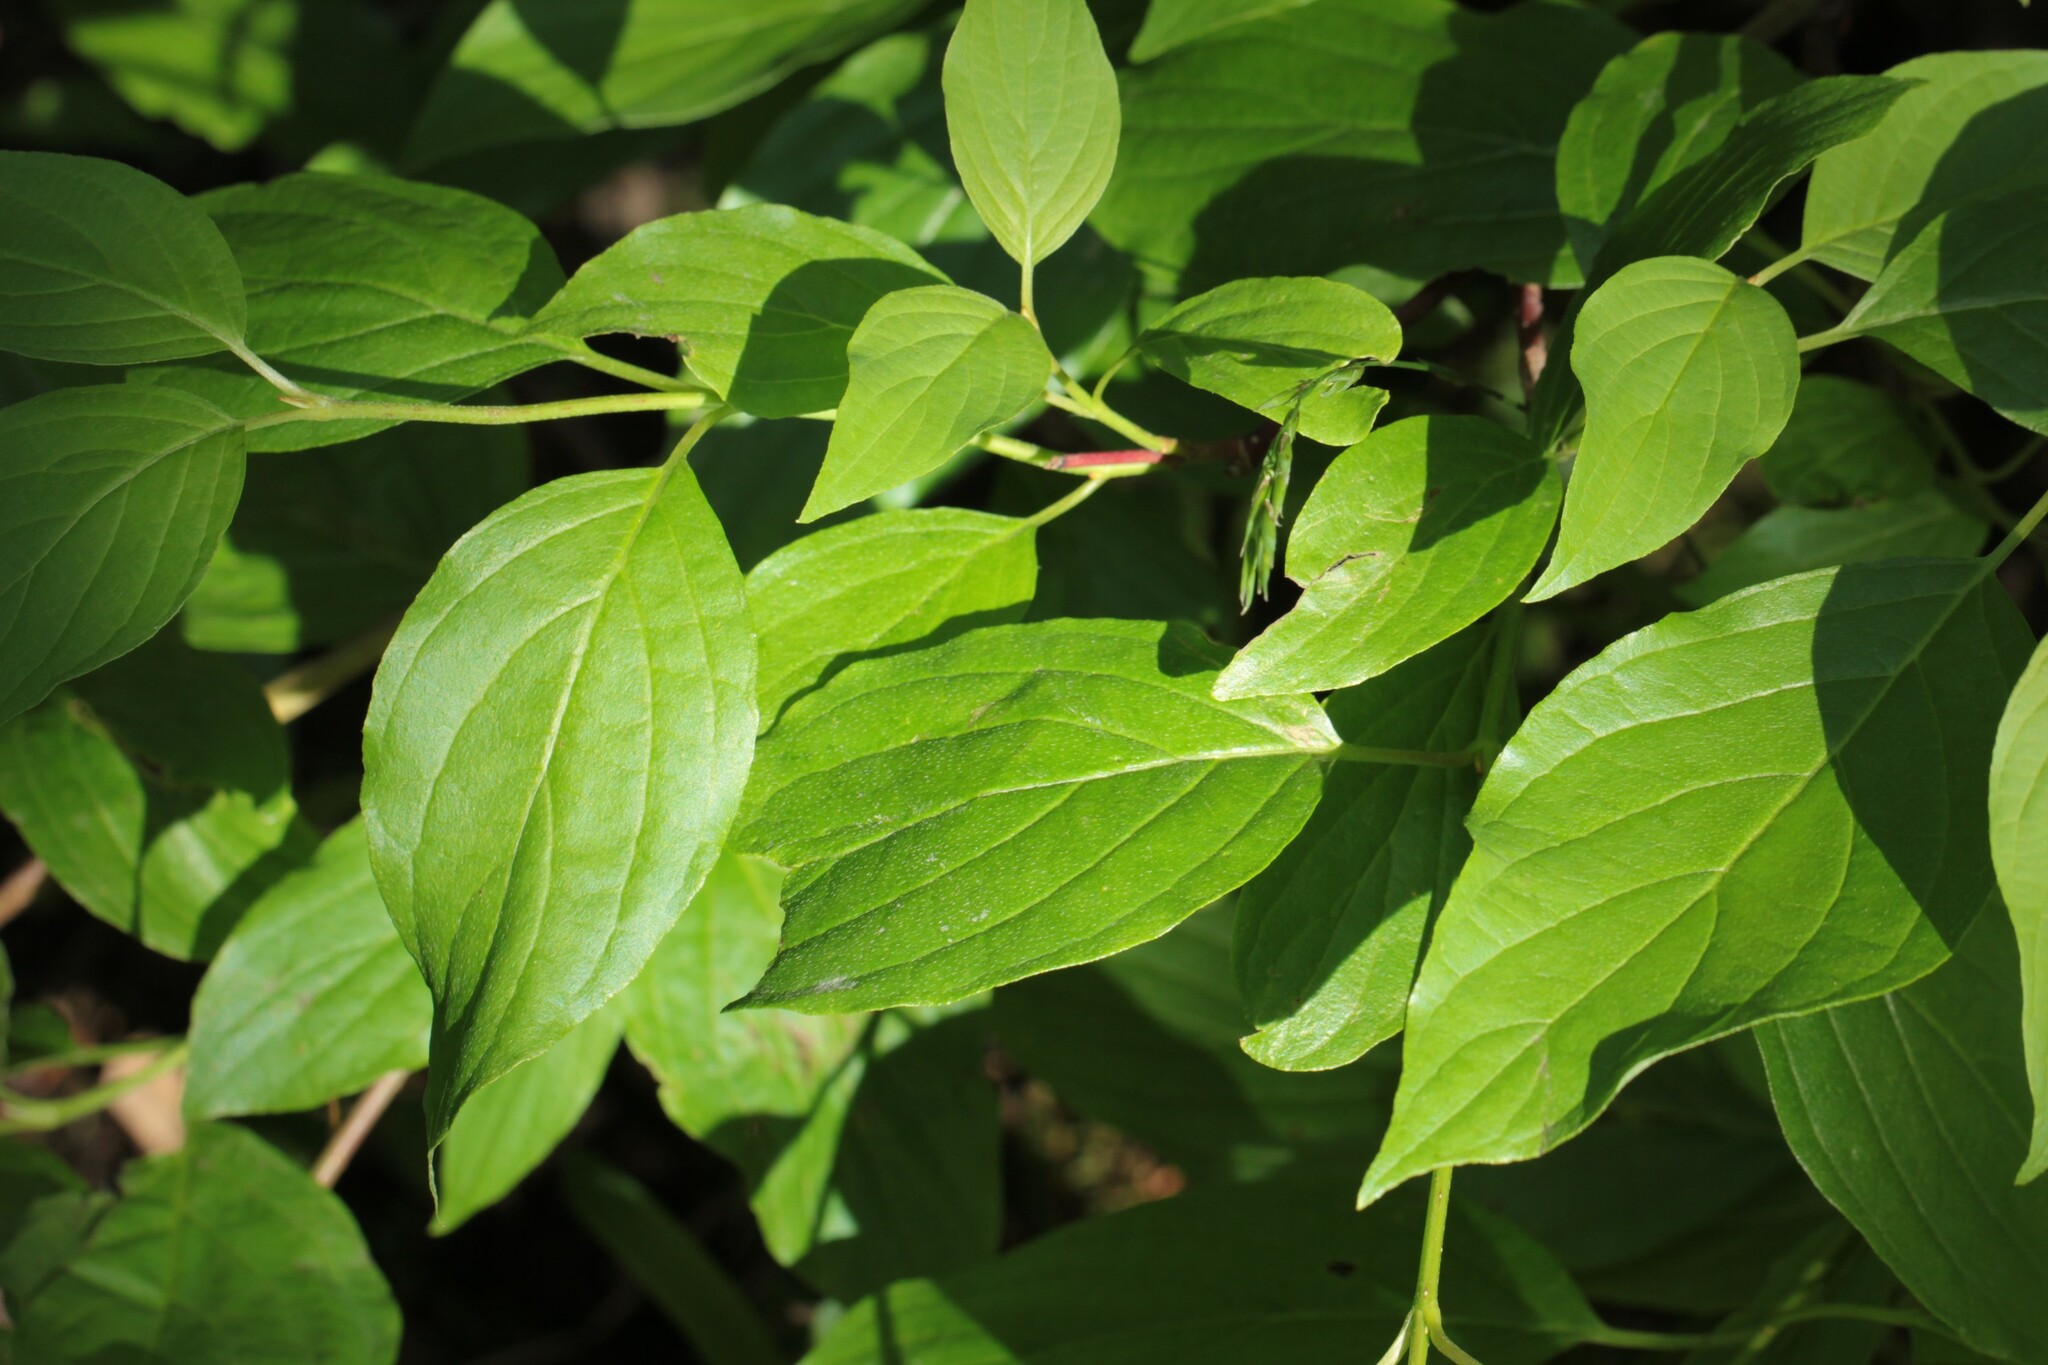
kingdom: Plantae
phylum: Tracheophyta
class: Magnoliopsida
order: Cornales
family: Cornaceae
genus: Cornus
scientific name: Cornus sericea
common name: Red-osier dogwood
